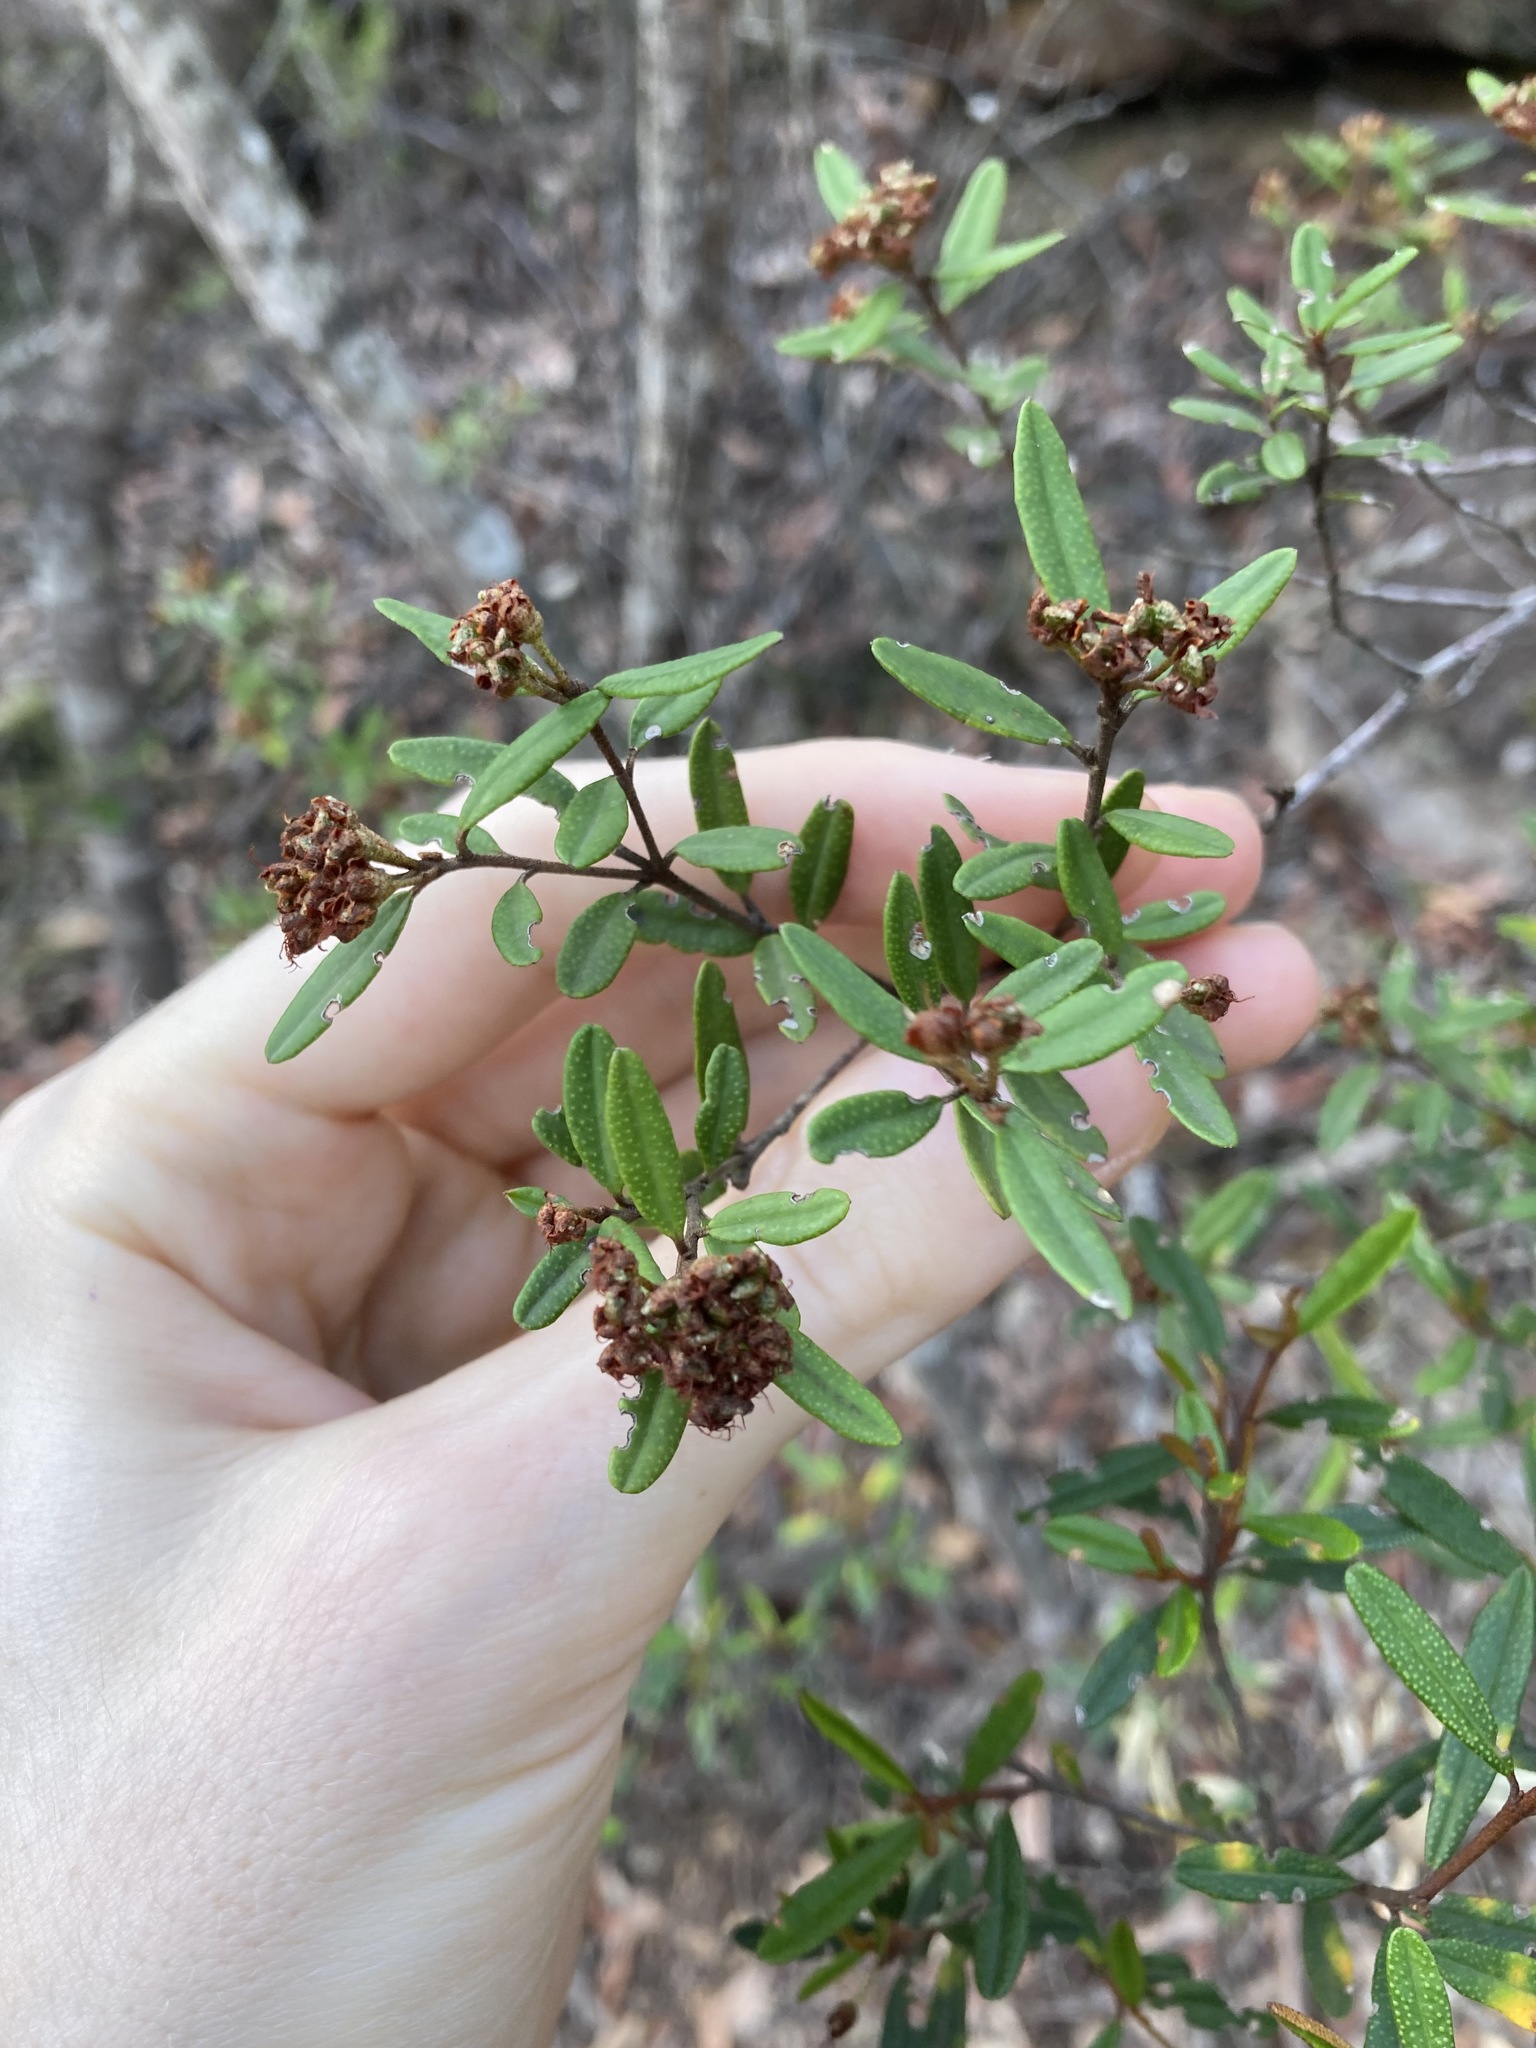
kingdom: Plantae
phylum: Tracheophyta
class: Magnoliopsida
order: Sapindales
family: Rutaceae
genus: Phebalium
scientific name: Phebalium squamulosum
